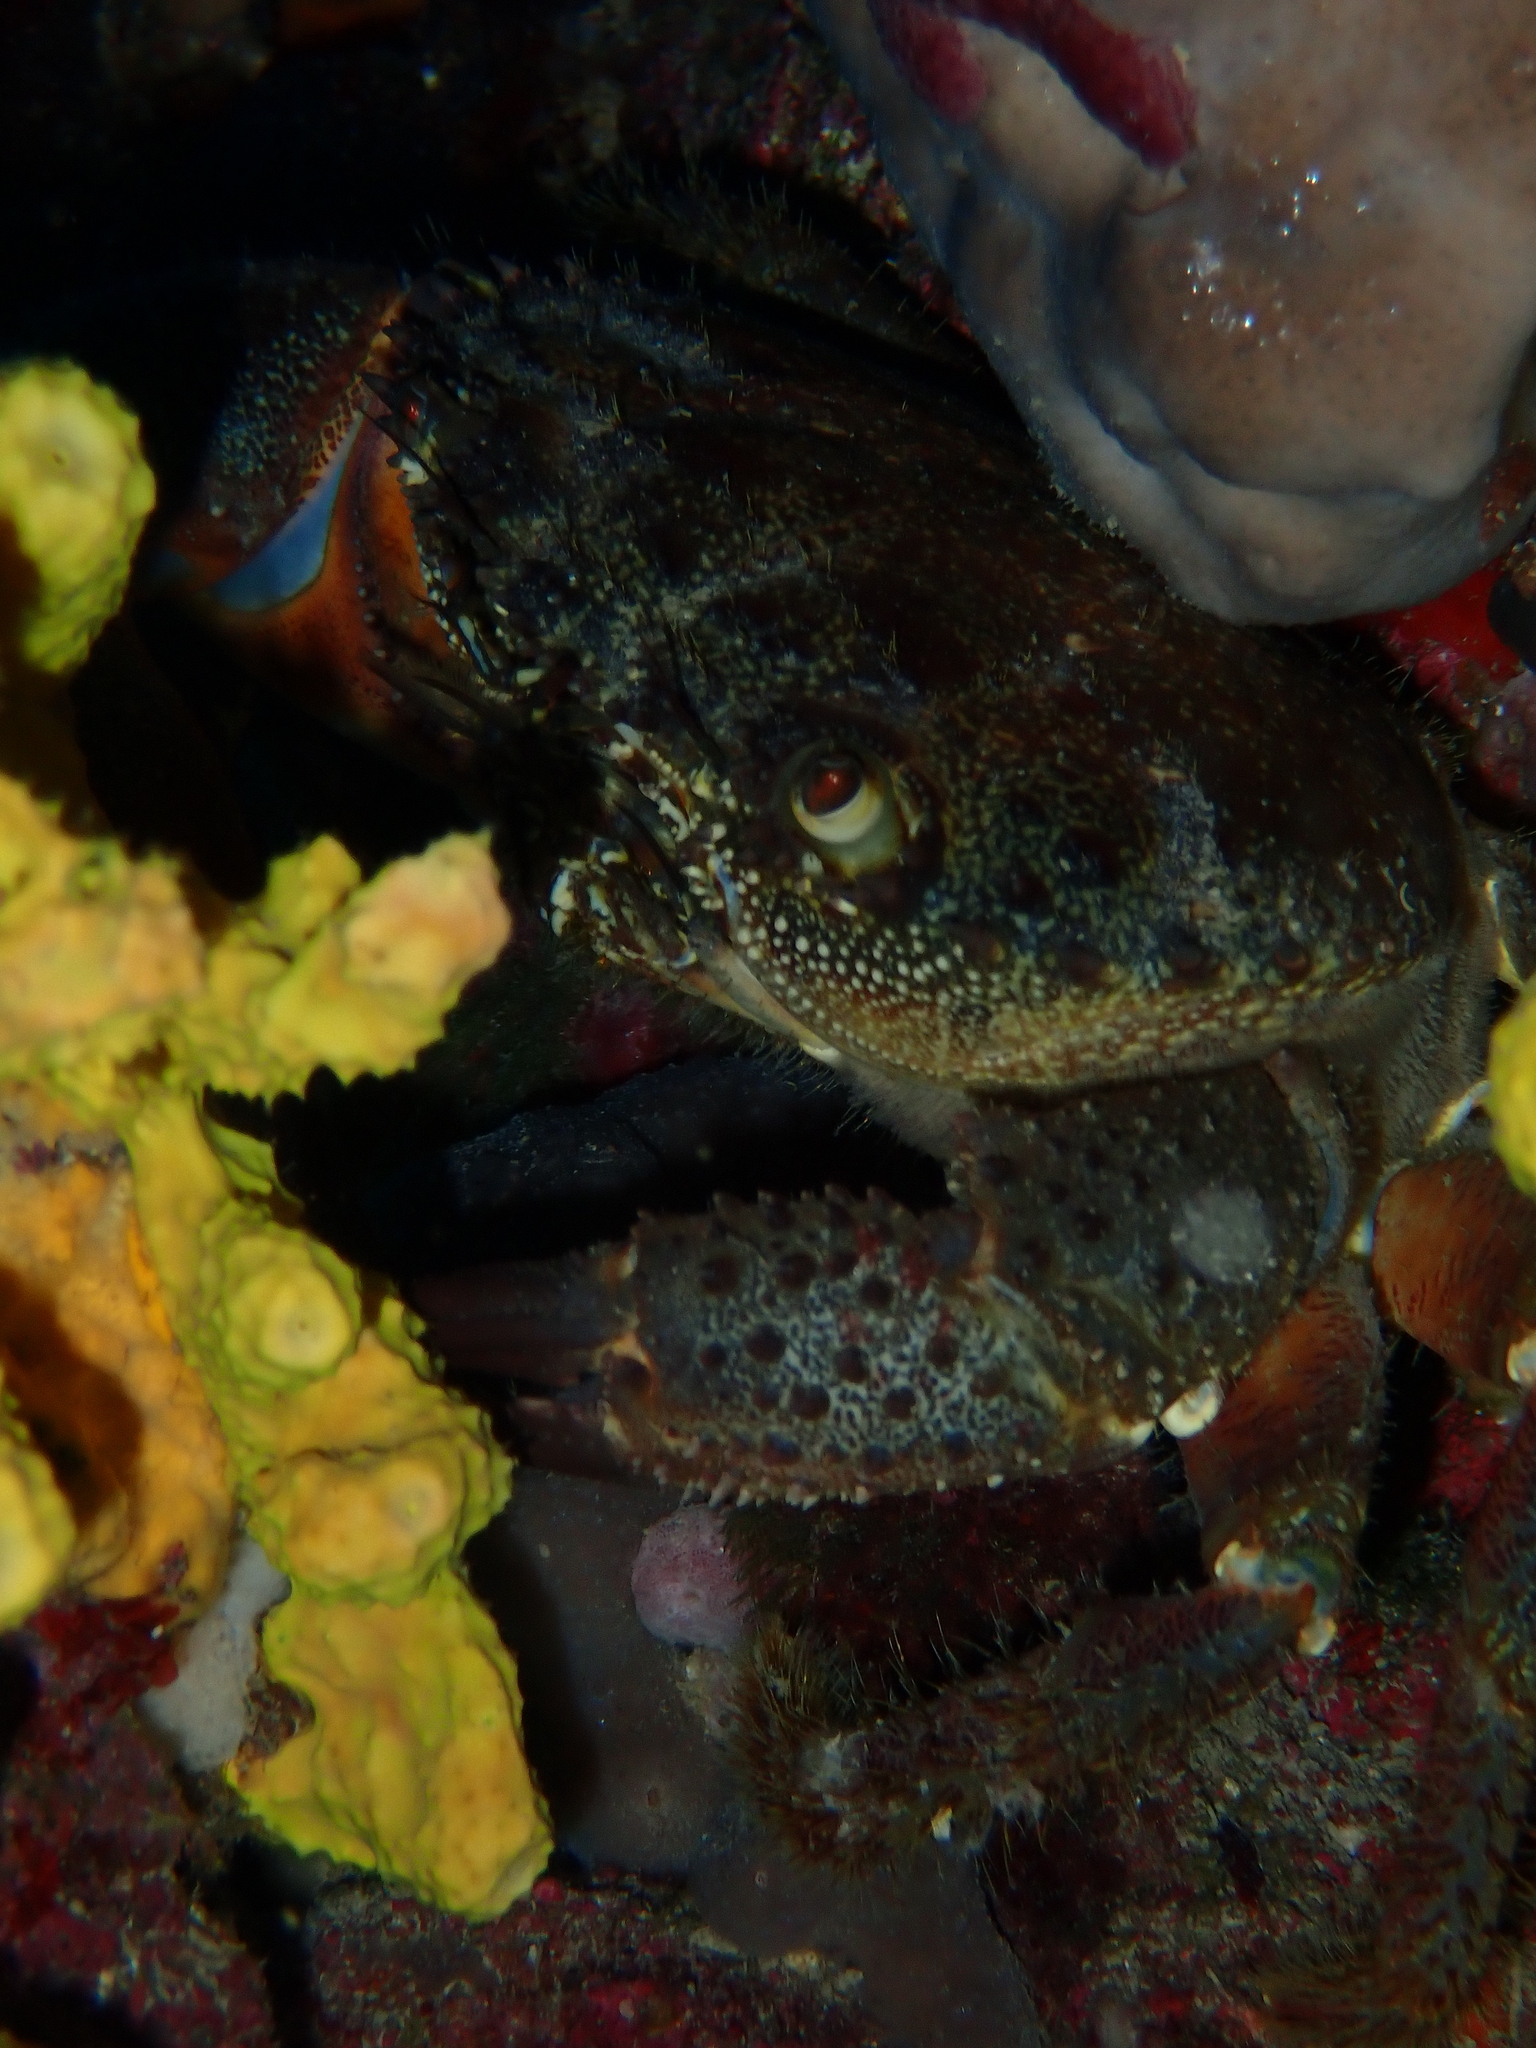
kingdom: Animalia
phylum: Arthropoda
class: Malacostraca
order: Decapoda
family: Eriphiidae
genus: Eriphia
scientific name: Eriphia verrucosa
